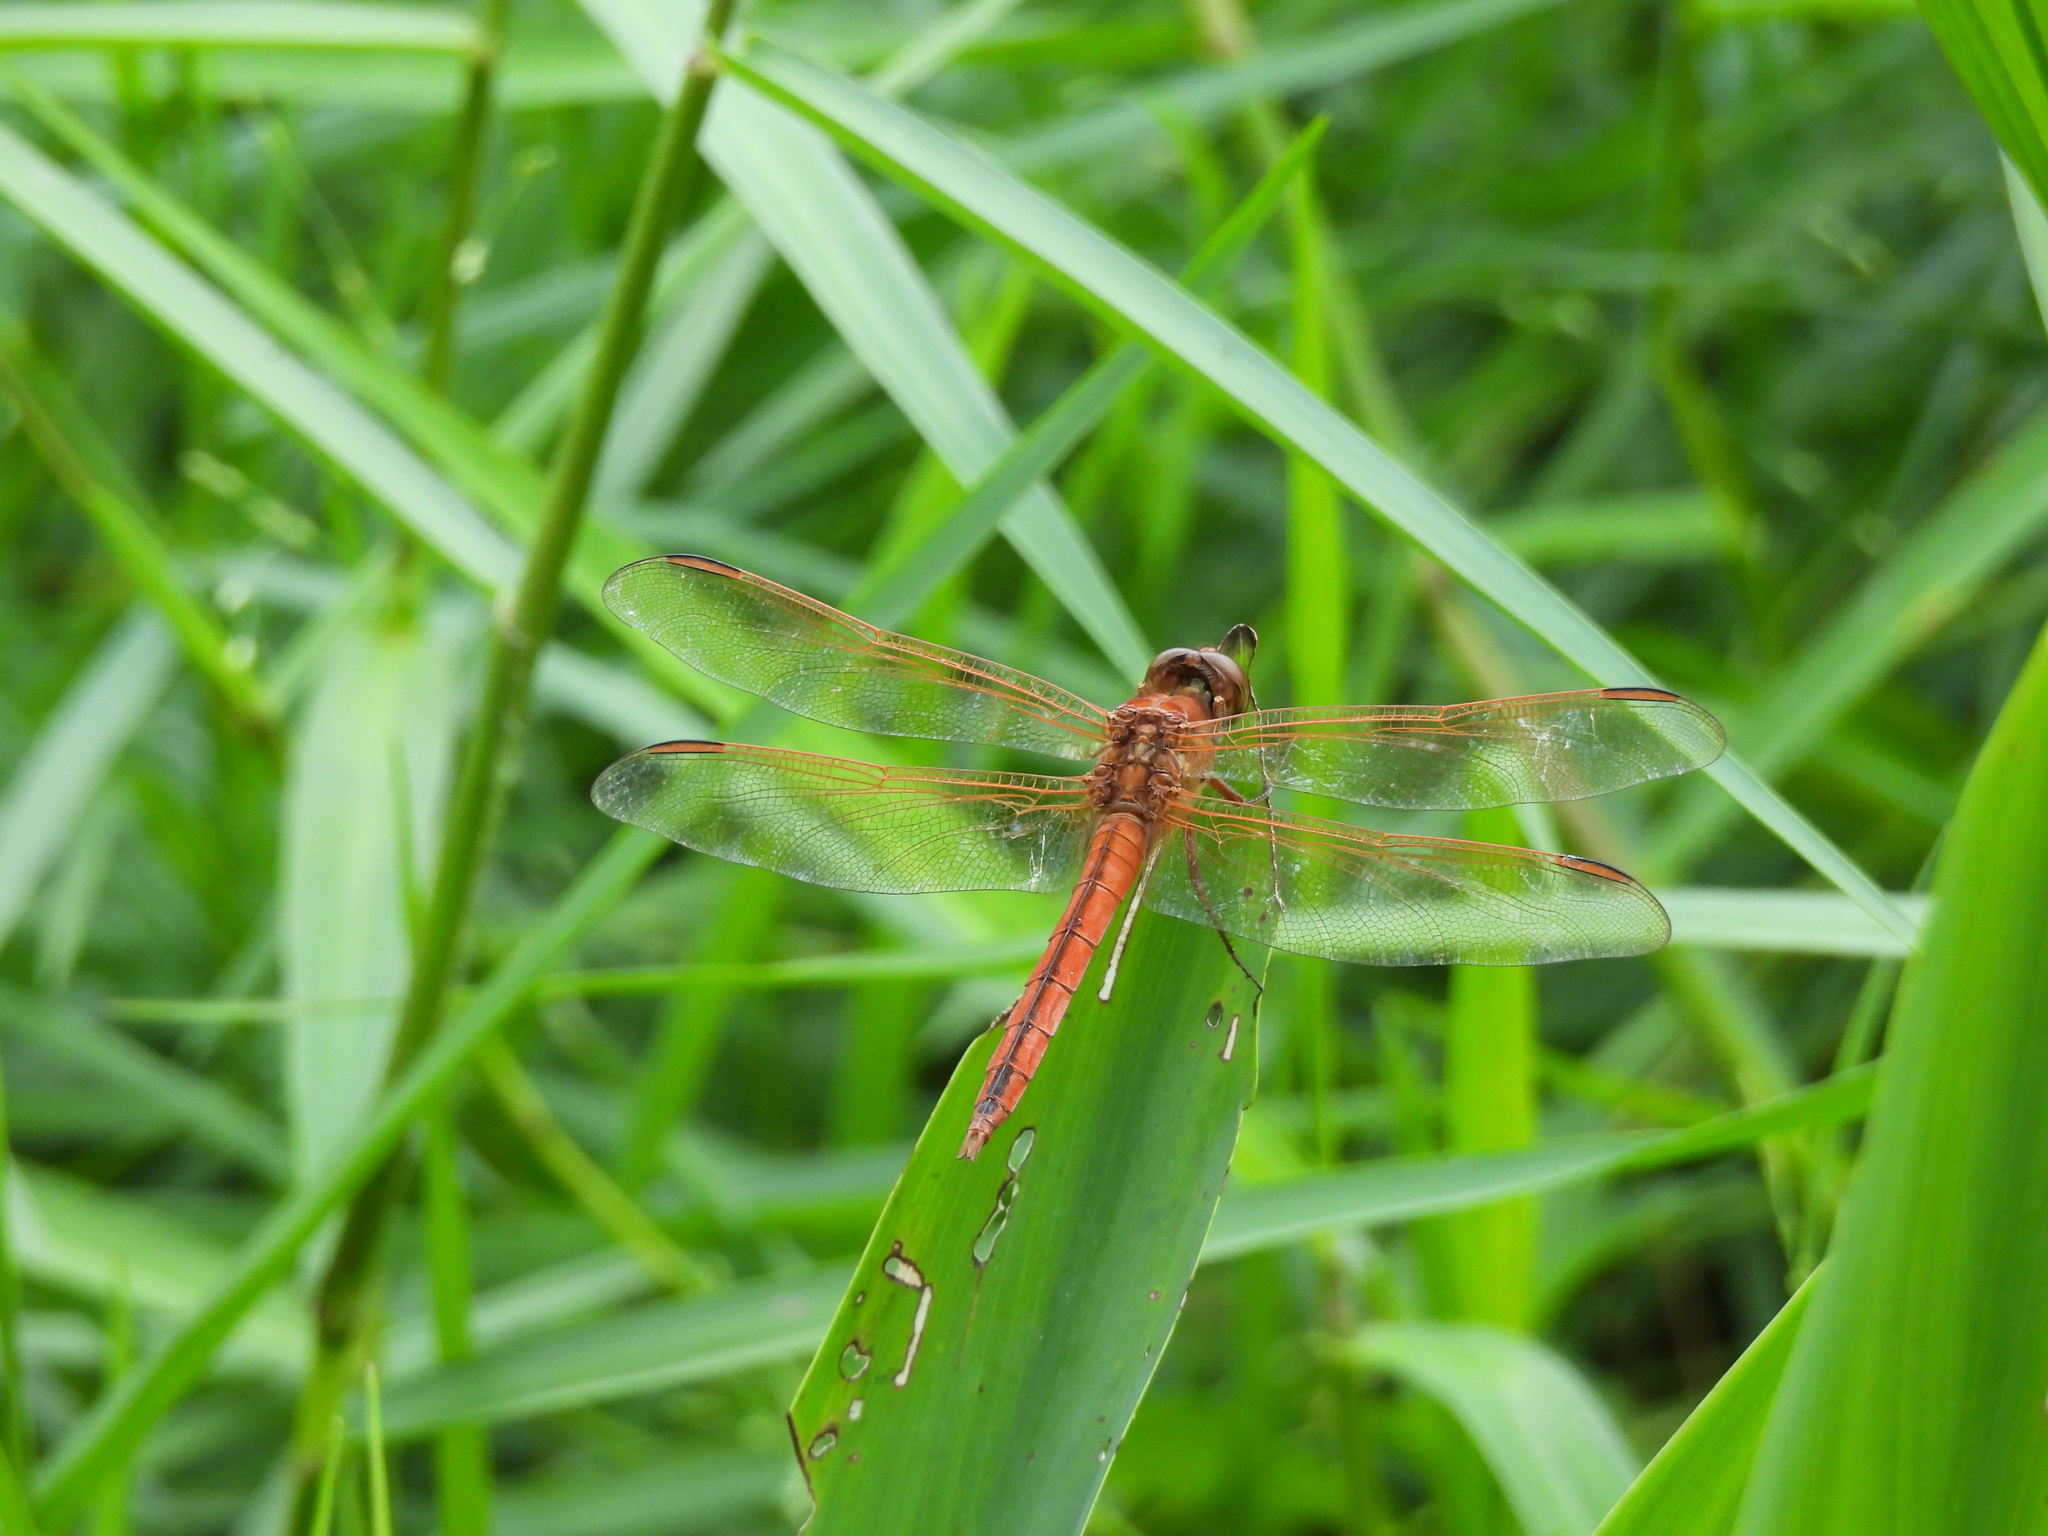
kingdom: Animalia
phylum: Arthropoda
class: Insecta
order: Odonata
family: Libellulidae
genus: Libellula
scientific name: Libellula needhami
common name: Needham's skimmer
